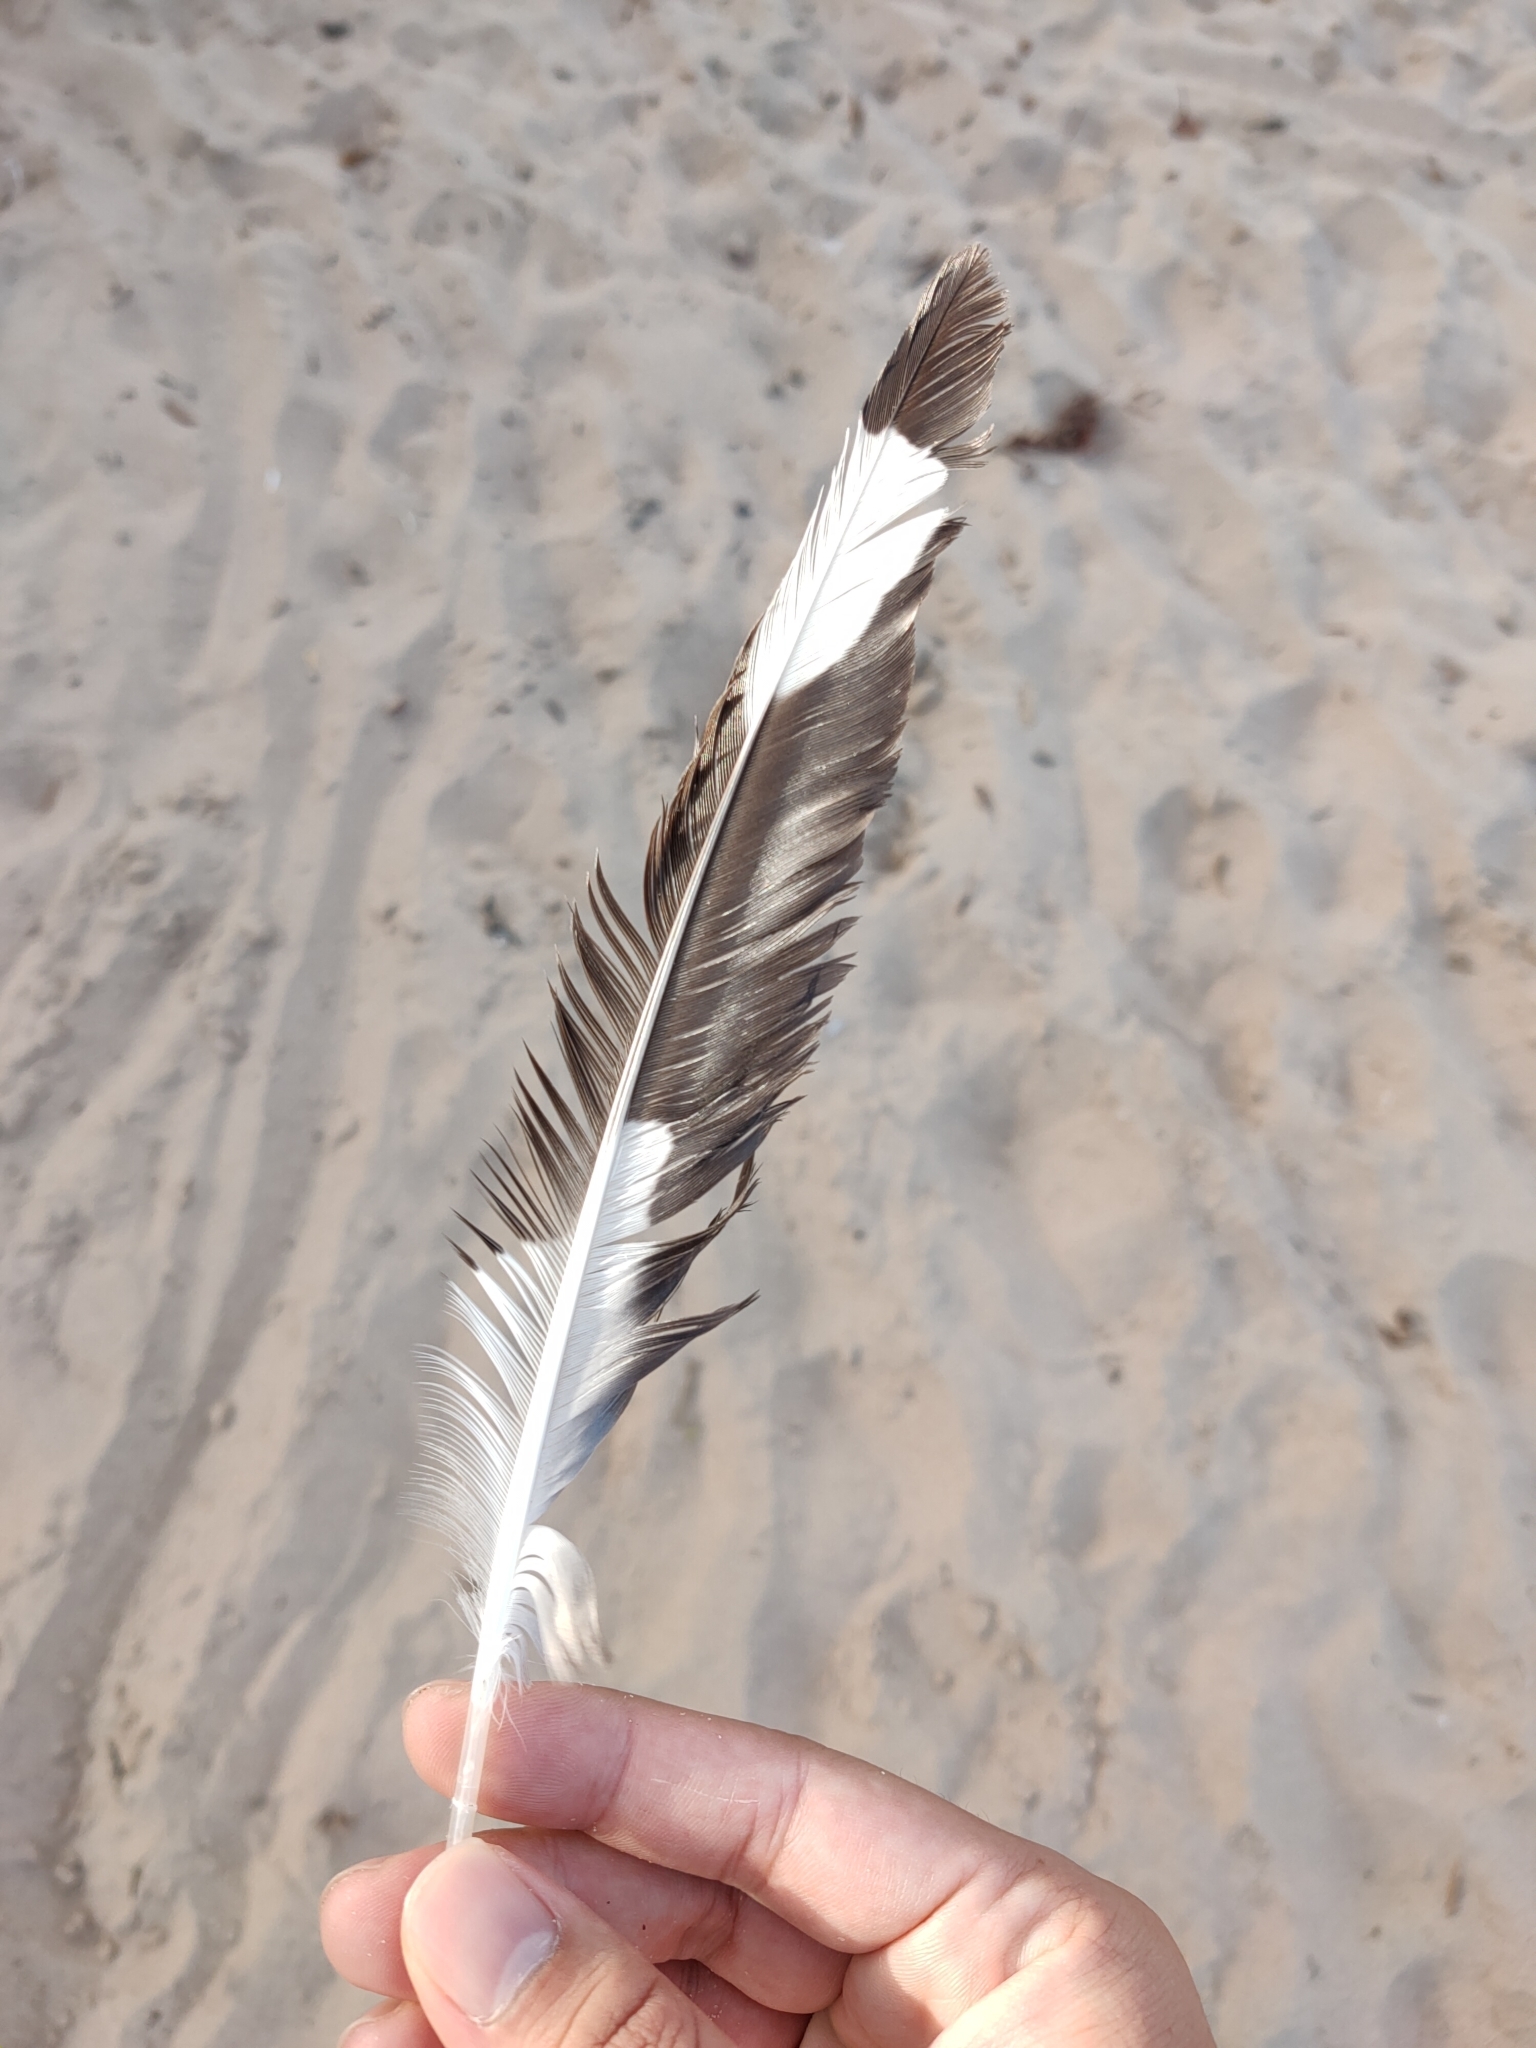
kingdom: Animalia
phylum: Chordata
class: Aves
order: Charadriiformes
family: Laridae
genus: Chroicocephalus
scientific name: Chroicocephalus novaehollandiae
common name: Silver gull
